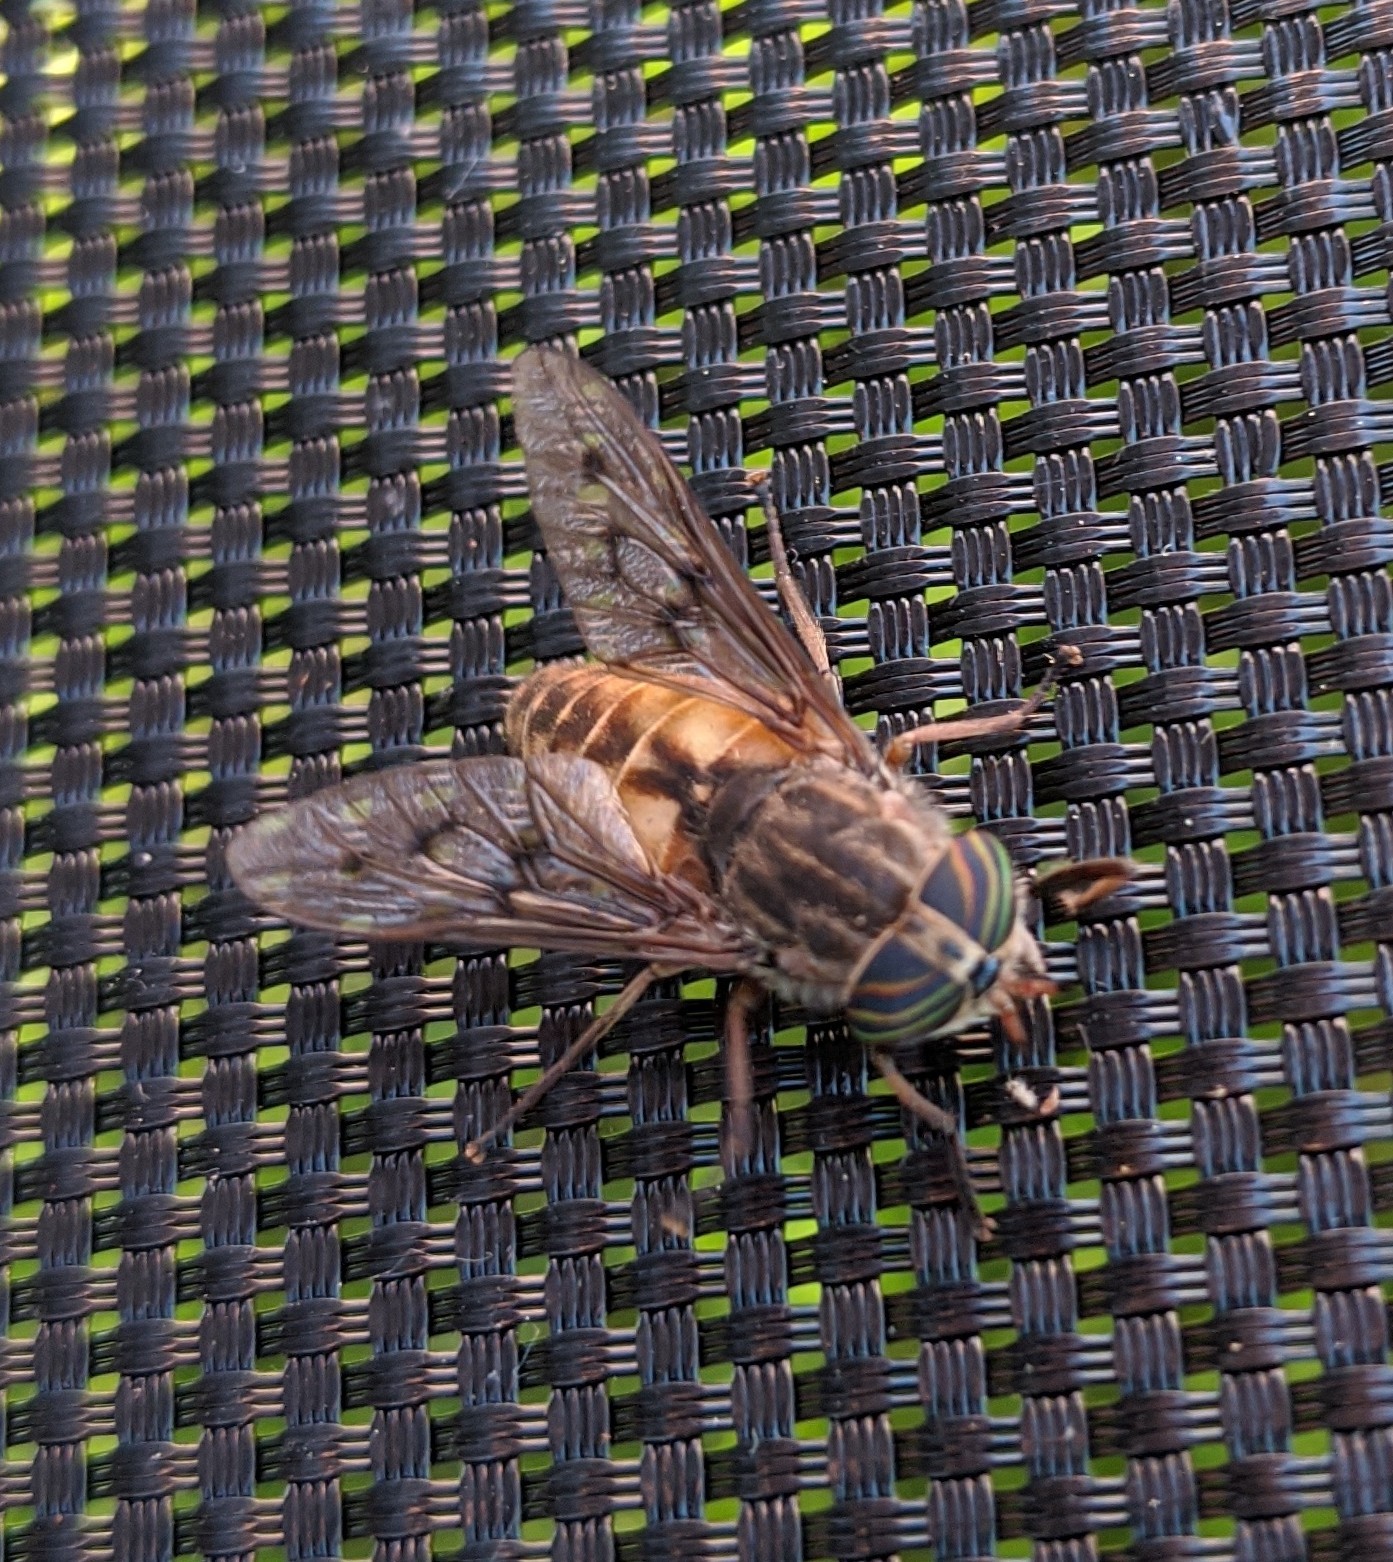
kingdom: Animalia
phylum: Arthropoda
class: Insecta
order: Diptera
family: Tabanidae
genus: Hybomitra
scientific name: Hybomitra lasiophthalma
